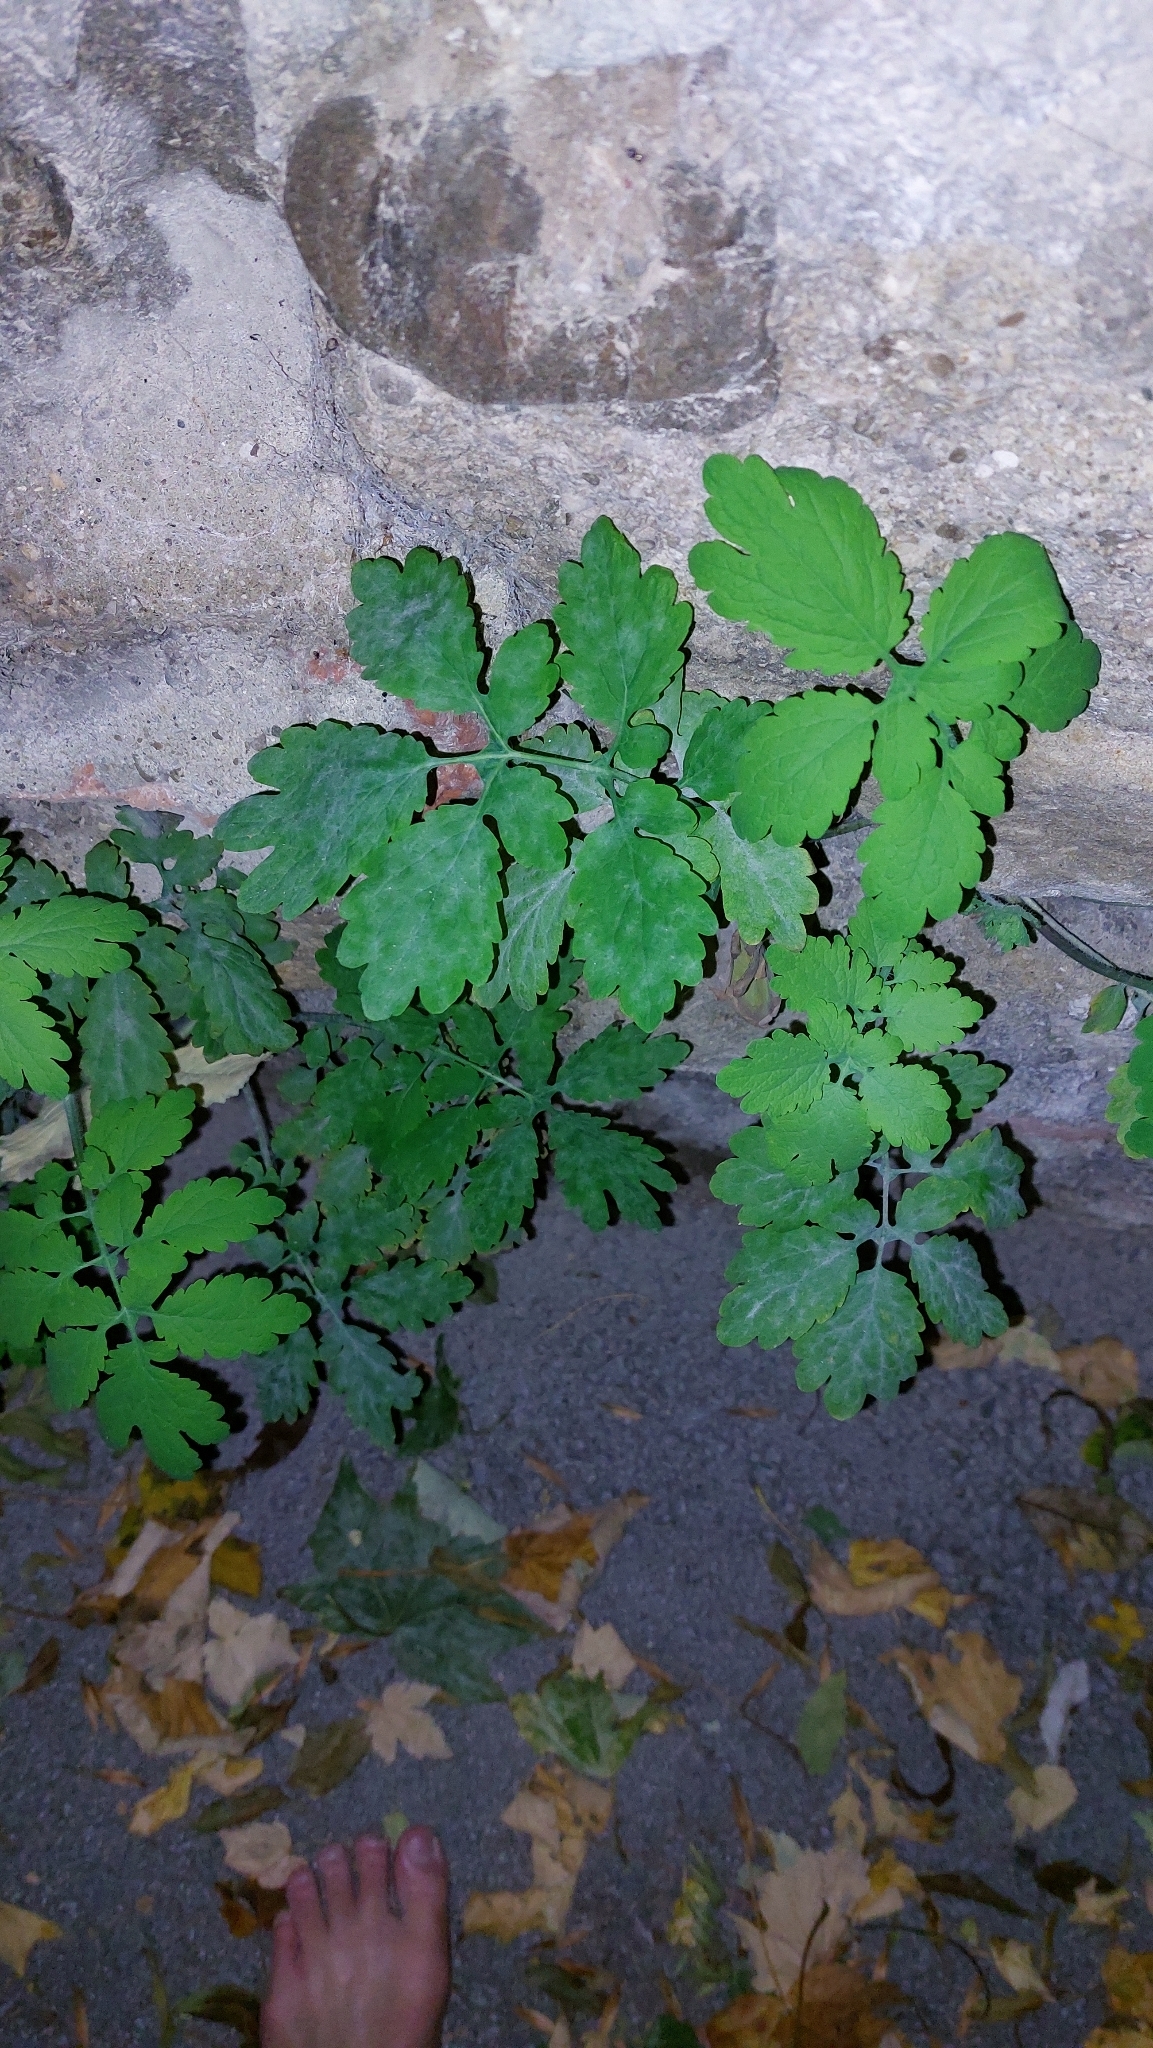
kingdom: Plantae
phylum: Tracheophyta
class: Magnoliopsida
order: Ranunculales
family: Papaveraceae
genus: Chelidonium
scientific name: Chelidonium majus
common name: Greater celandine
